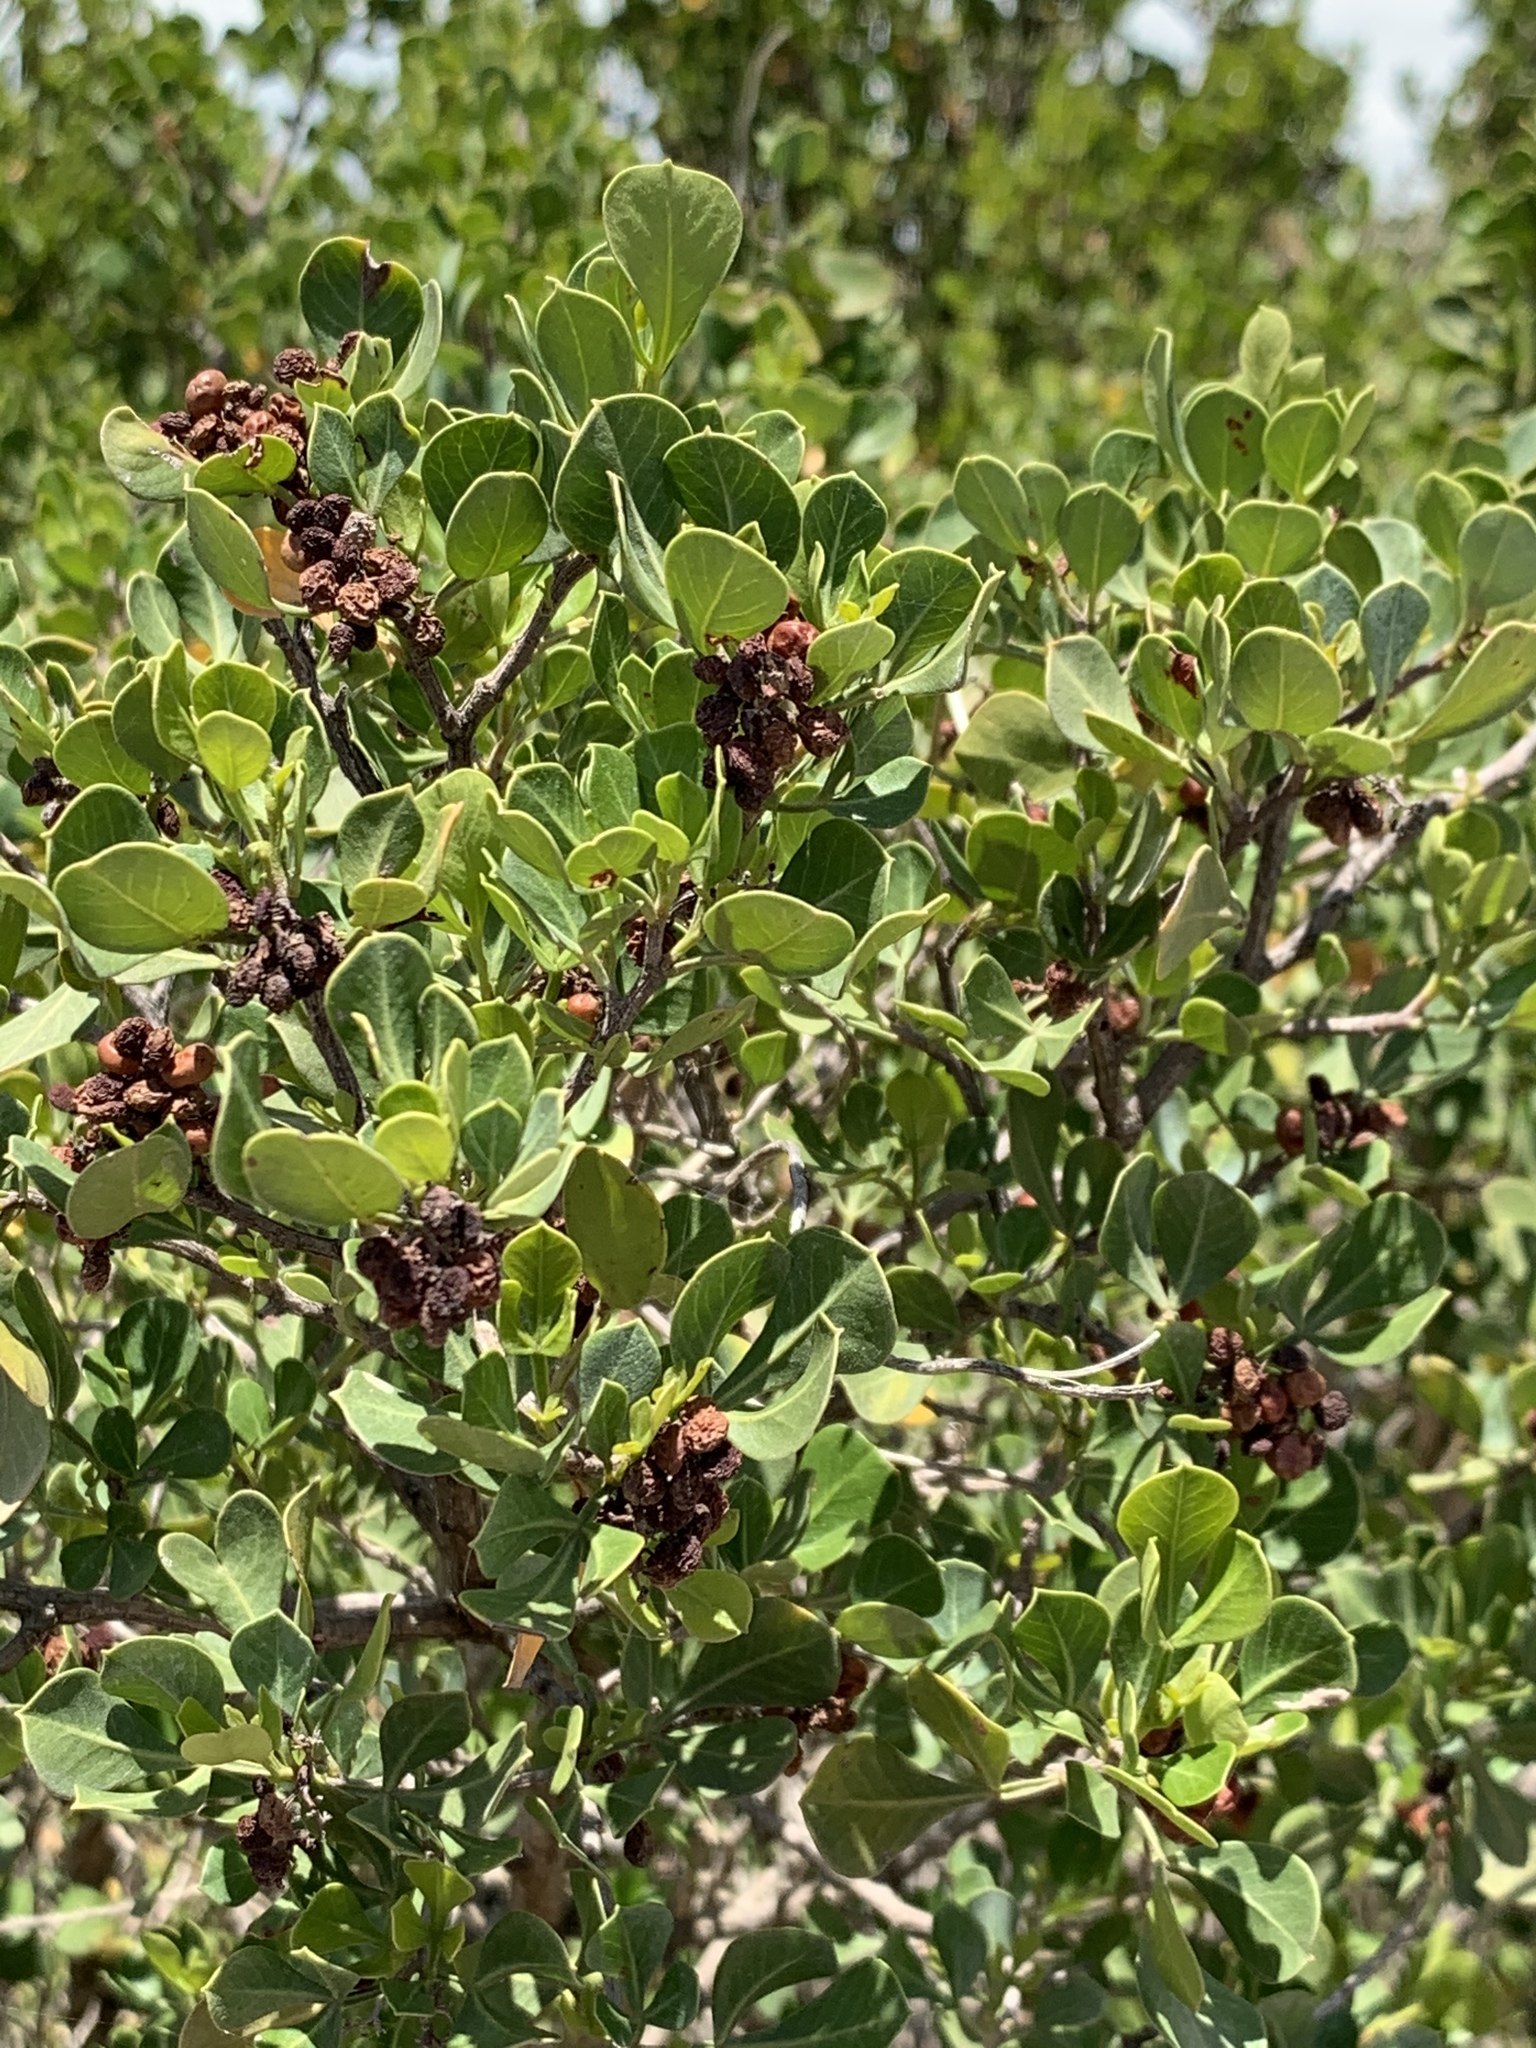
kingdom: Plantae
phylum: Tracheophyta
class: Magnoliopsida
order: Sapindales
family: Anacardiaceae
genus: Searsia
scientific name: Searsia glauca
